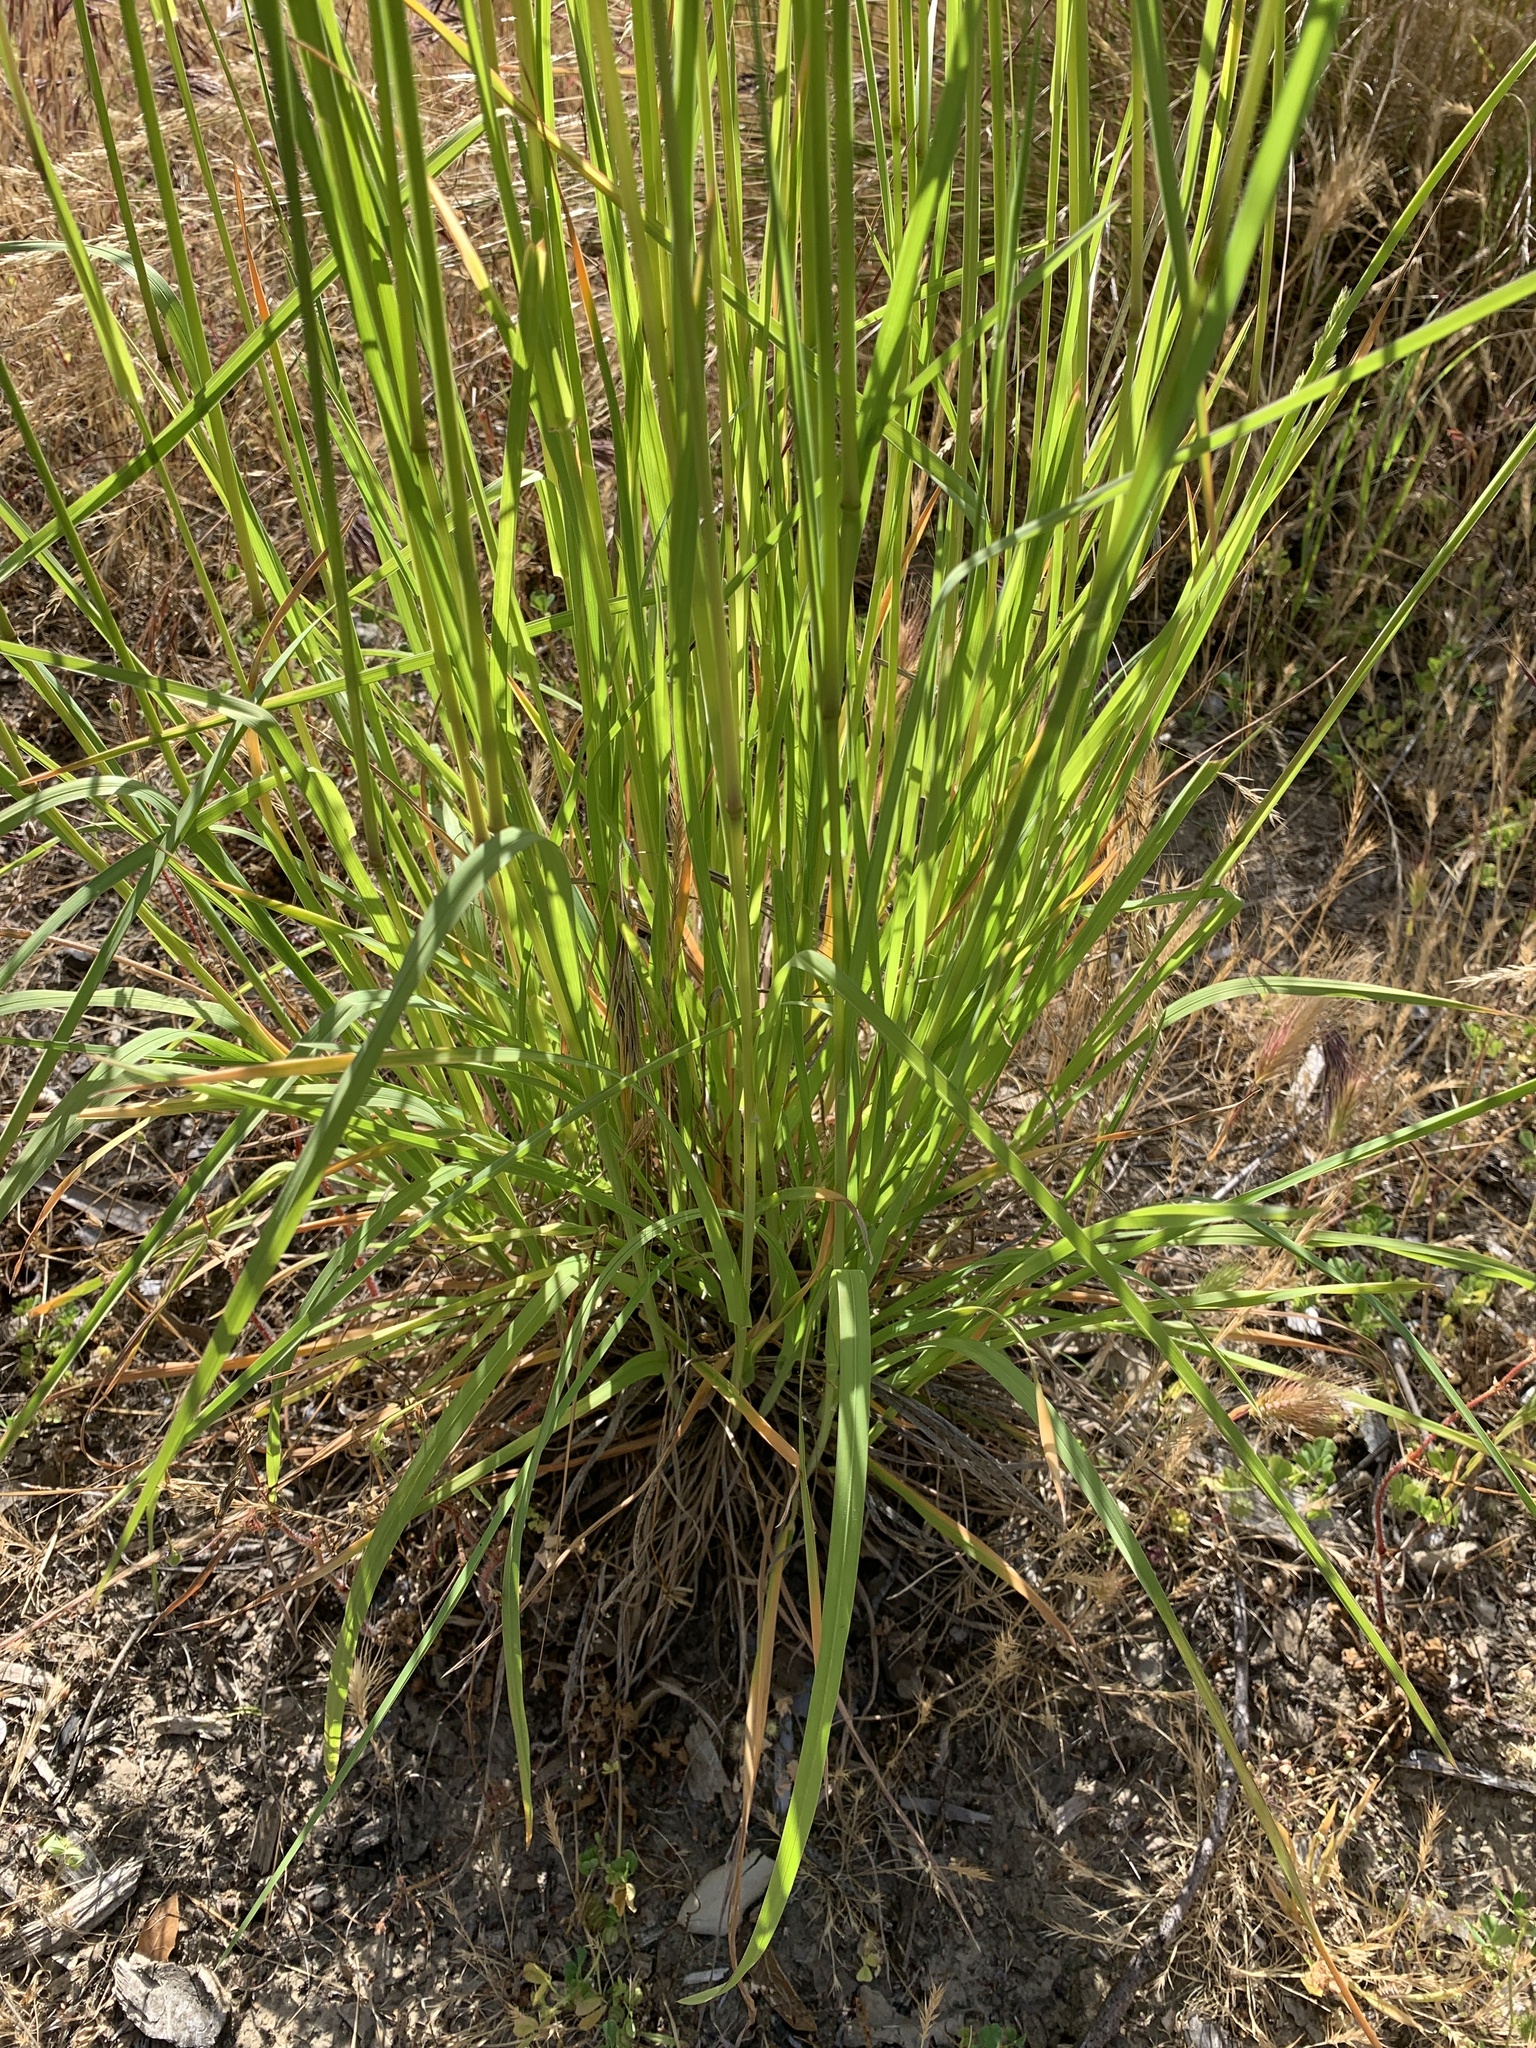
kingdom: Plantae
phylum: Tracheophyta
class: Liliopsida
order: Poales
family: Poaceae
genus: Dactylis
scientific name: Dactylis glomerata
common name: Orchardgrass
